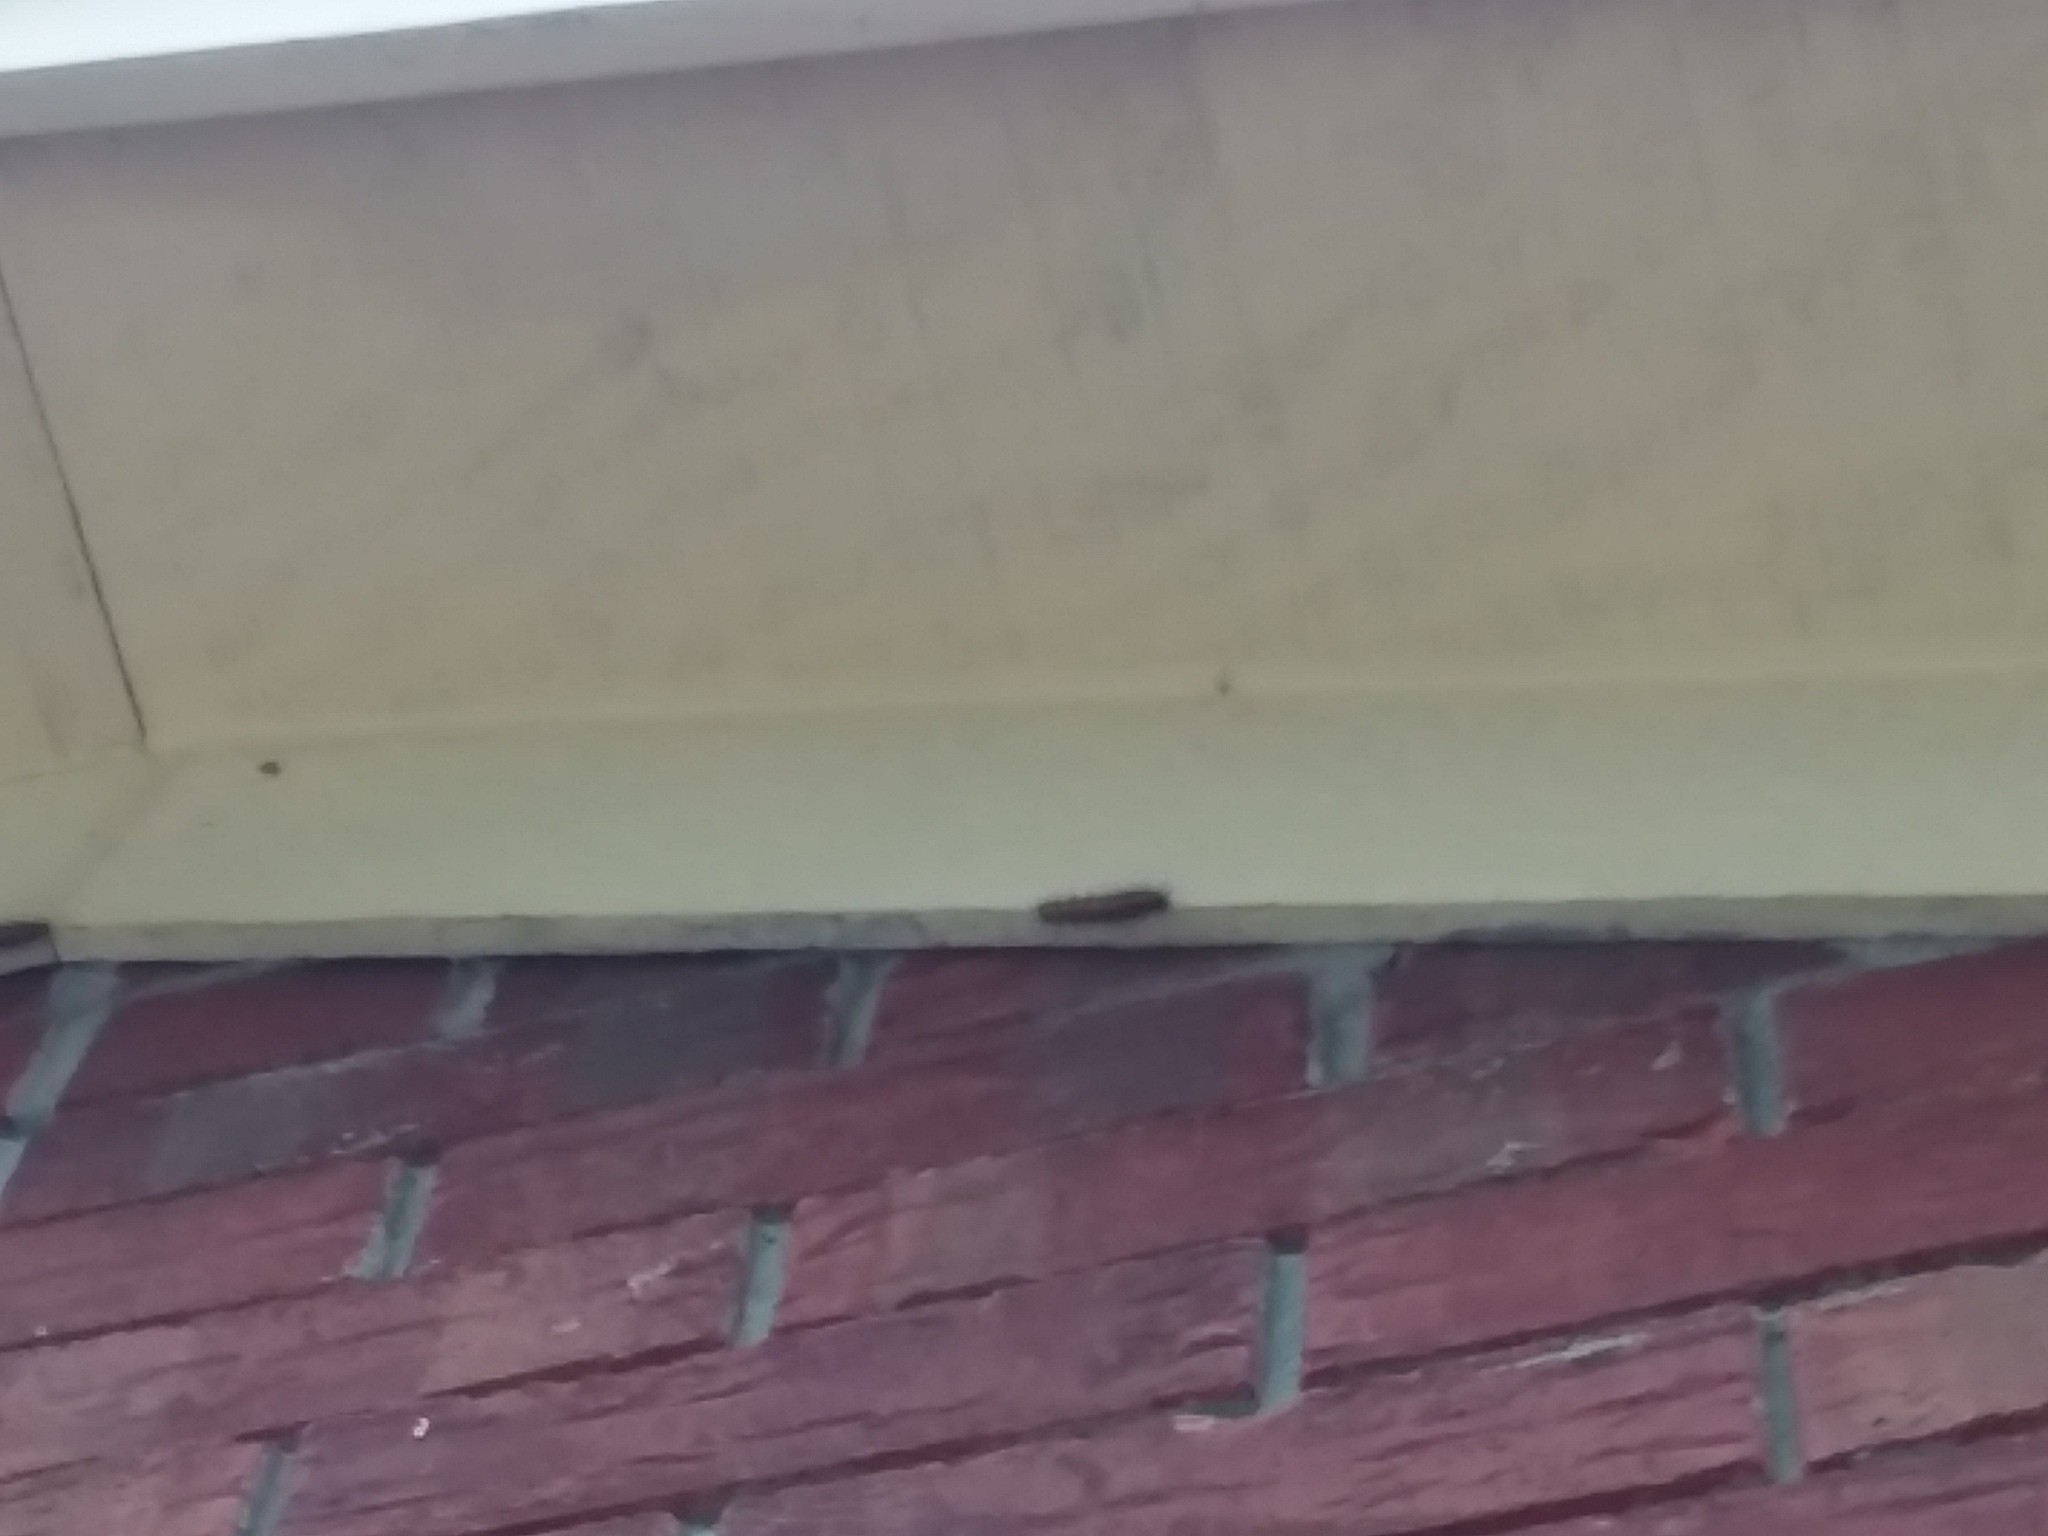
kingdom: Animalia
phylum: Arthropoda
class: Insecta
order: Lepidoptera
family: Nymphalidae
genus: Dione
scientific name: Dione vanillae
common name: Gulf fritillary
